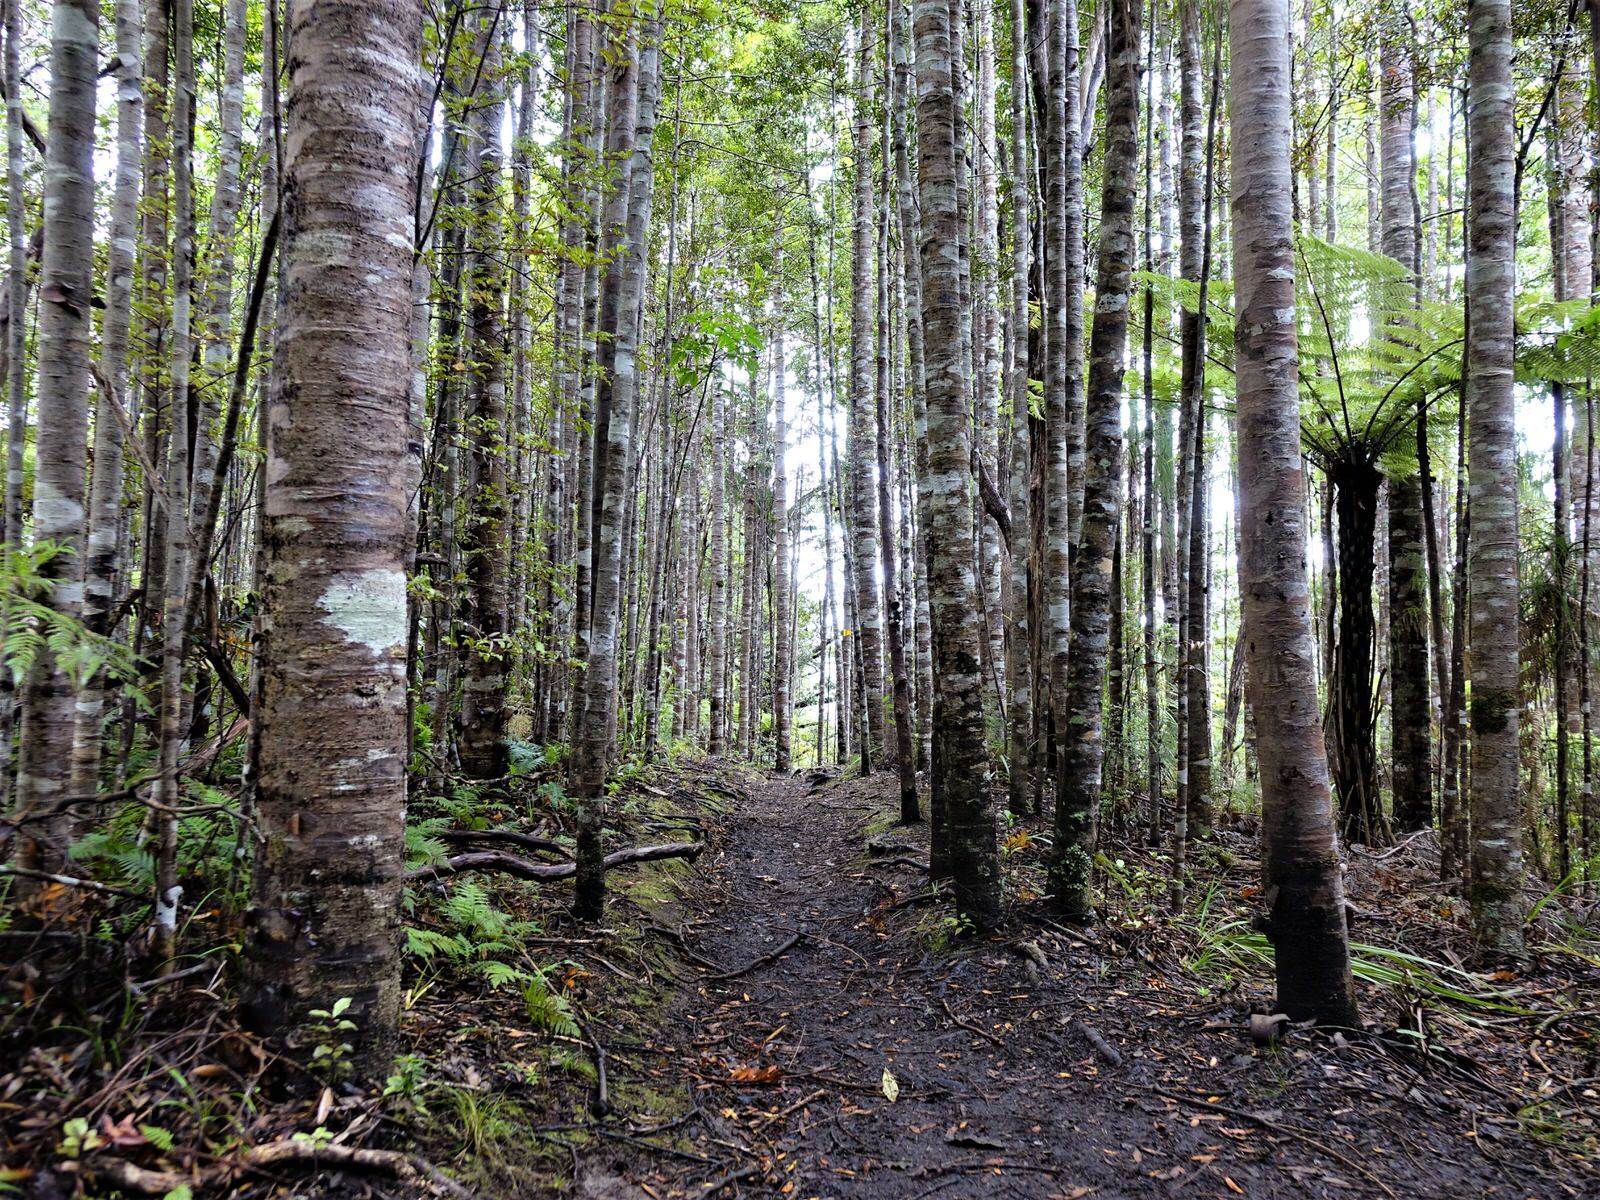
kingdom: Plantae
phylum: Tracheophyta
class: Pinopsida
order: Pinales
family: Araucariaceae
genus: Agathis
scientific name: Agathis australis
